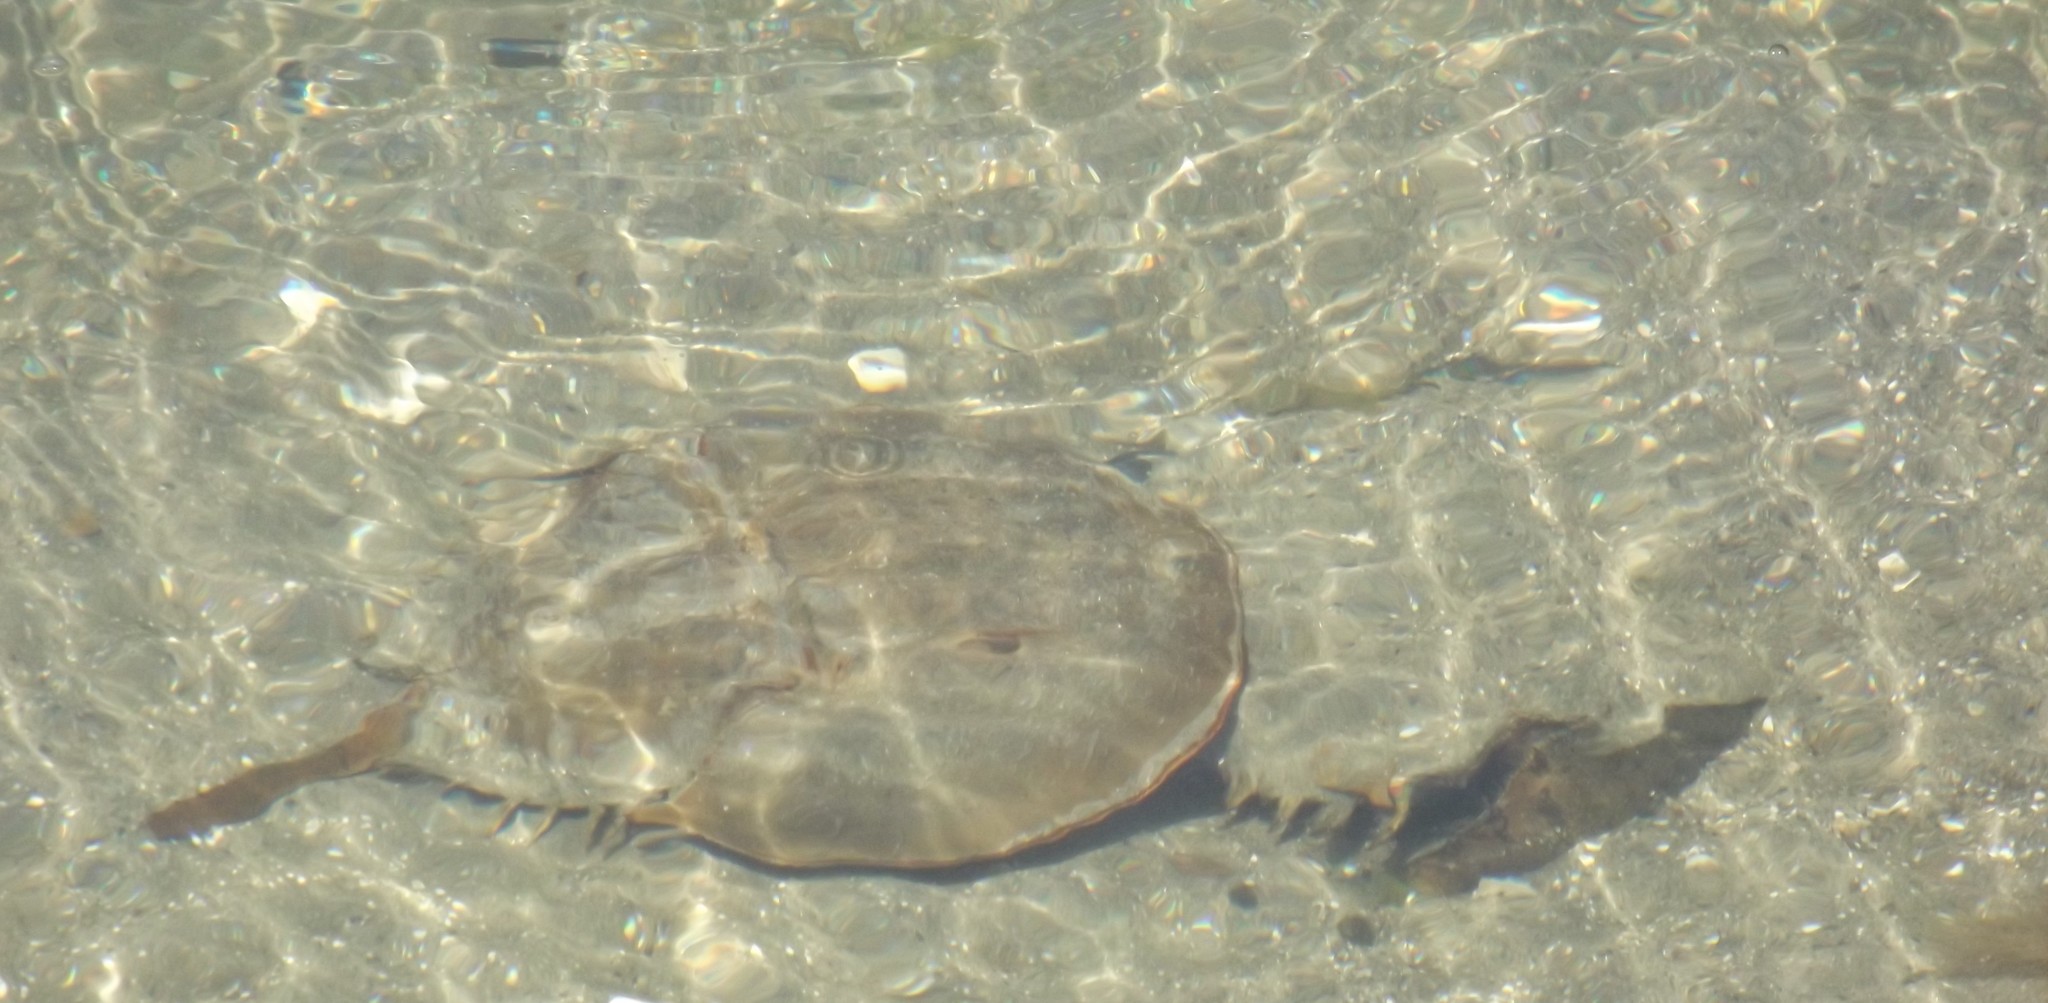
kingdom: Animalia
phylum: Arthropoda
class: Merostomata
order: Xiphosurida
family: Limulidae
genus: Limulus
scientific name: Limulus polyphemus
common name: Horseshoe crab
